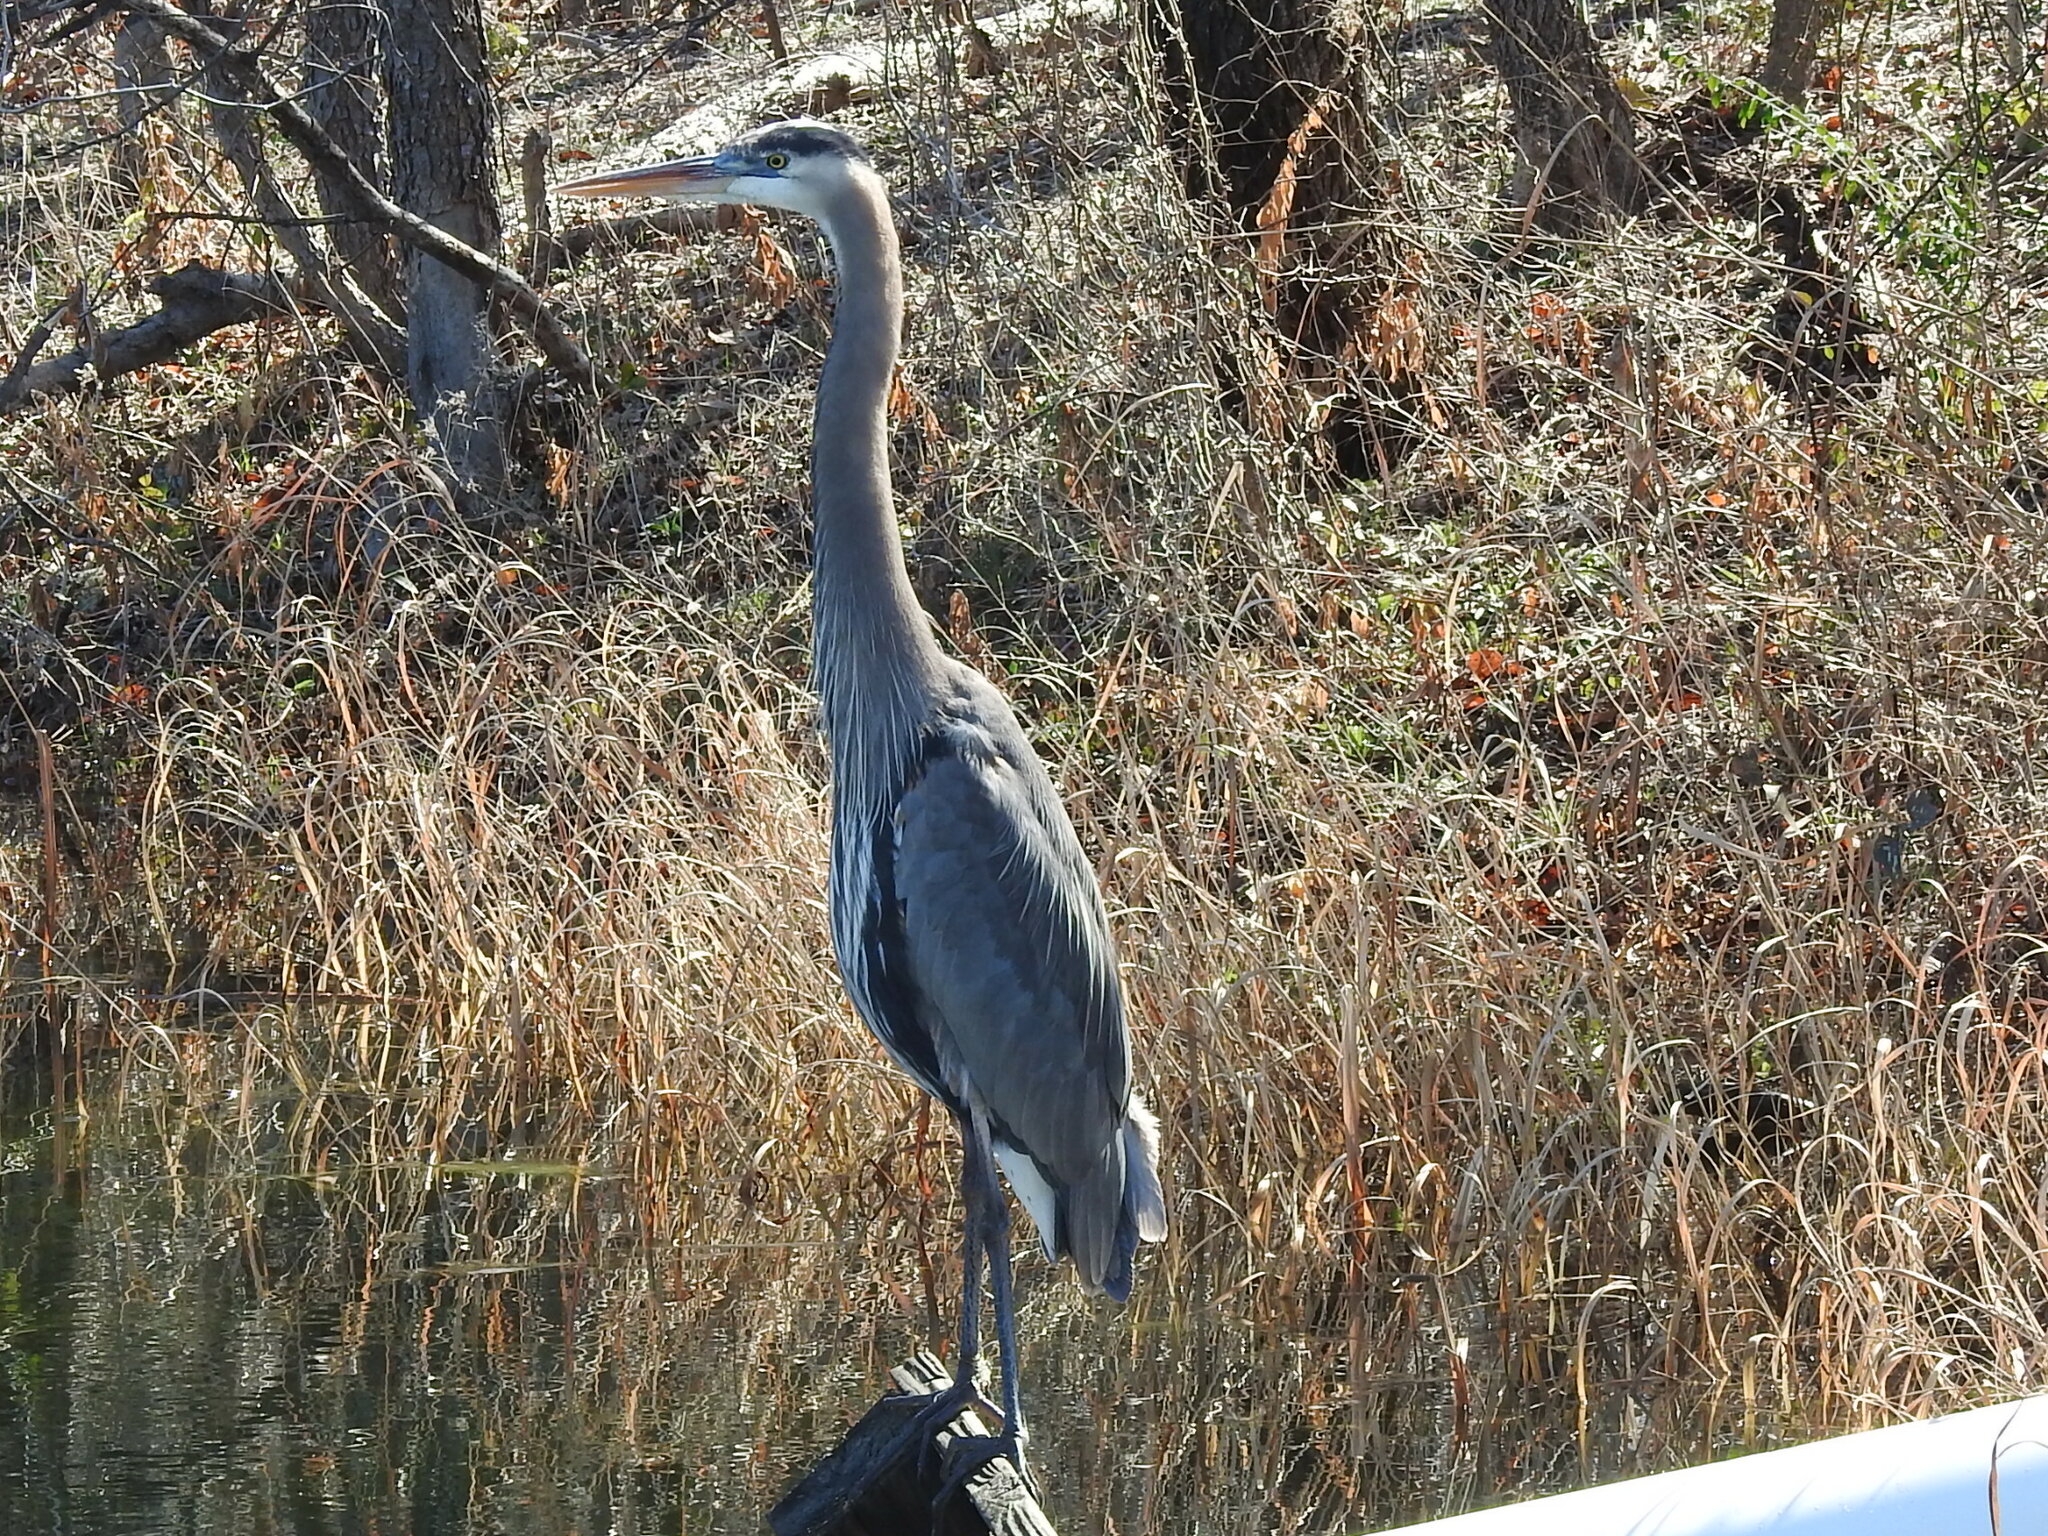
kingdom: Animalia
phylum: Chordata
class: Aves
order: Pelecaniformes
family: Ardeidae
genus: Ardea
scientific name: Ardea herodias
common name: Great blue heron
